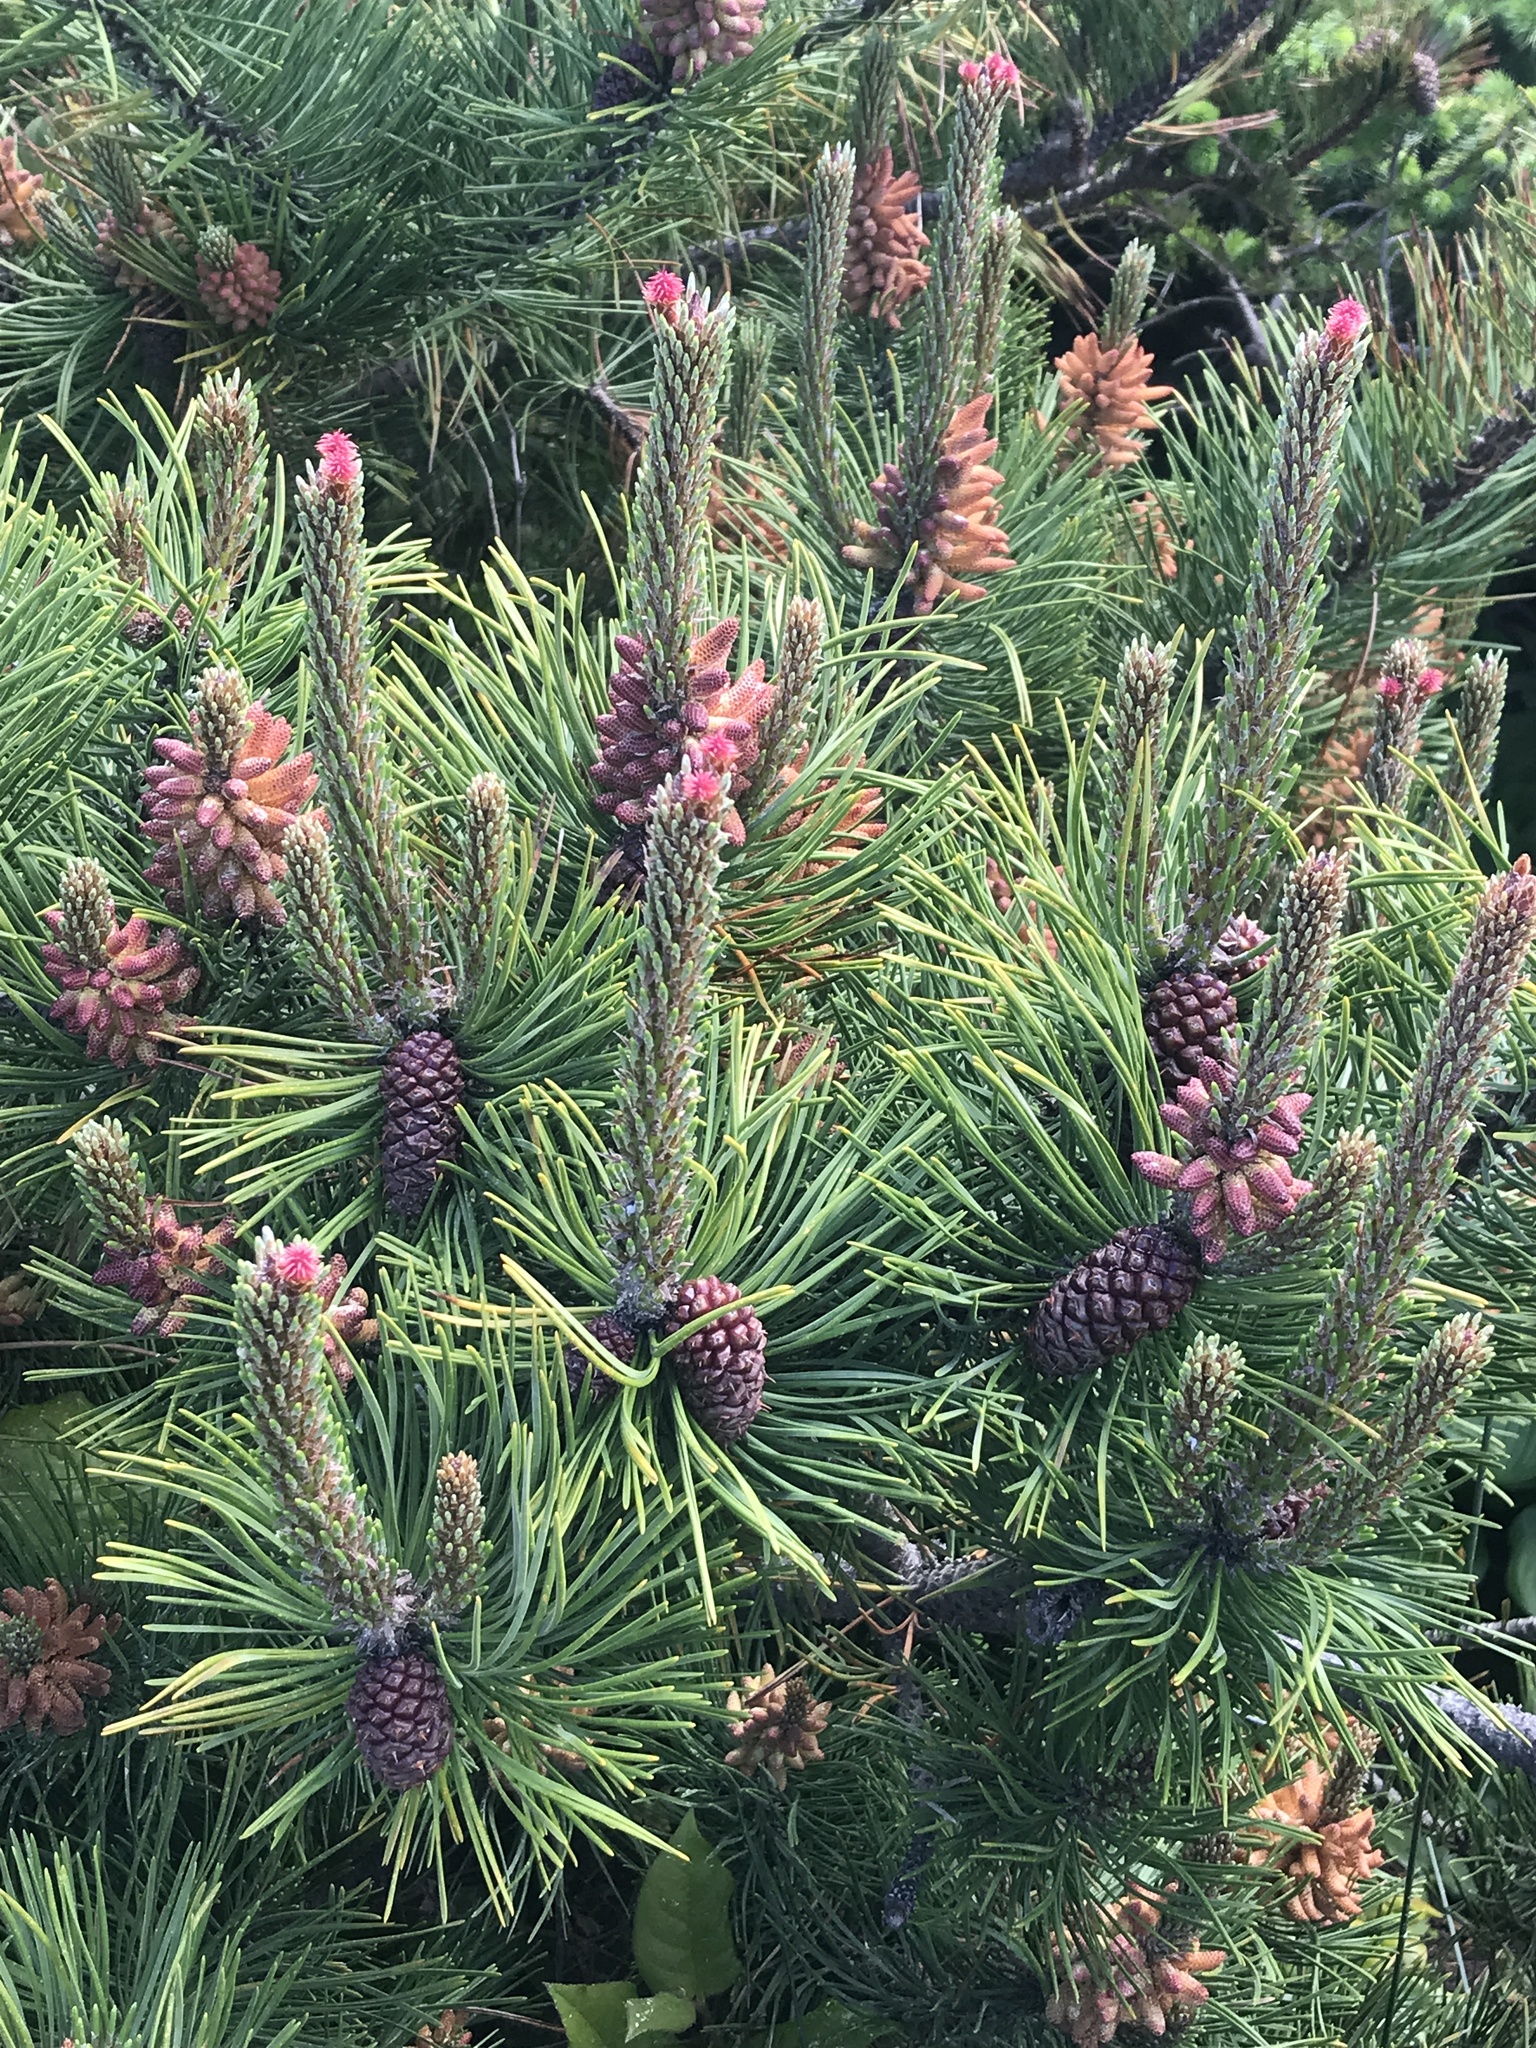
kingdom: Plantae
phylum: Tracheophyta
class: Pinopsida
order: Pinales
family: Pinaceae
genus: Pinus
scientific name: Pinus contorta
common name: Lodgepole pine
